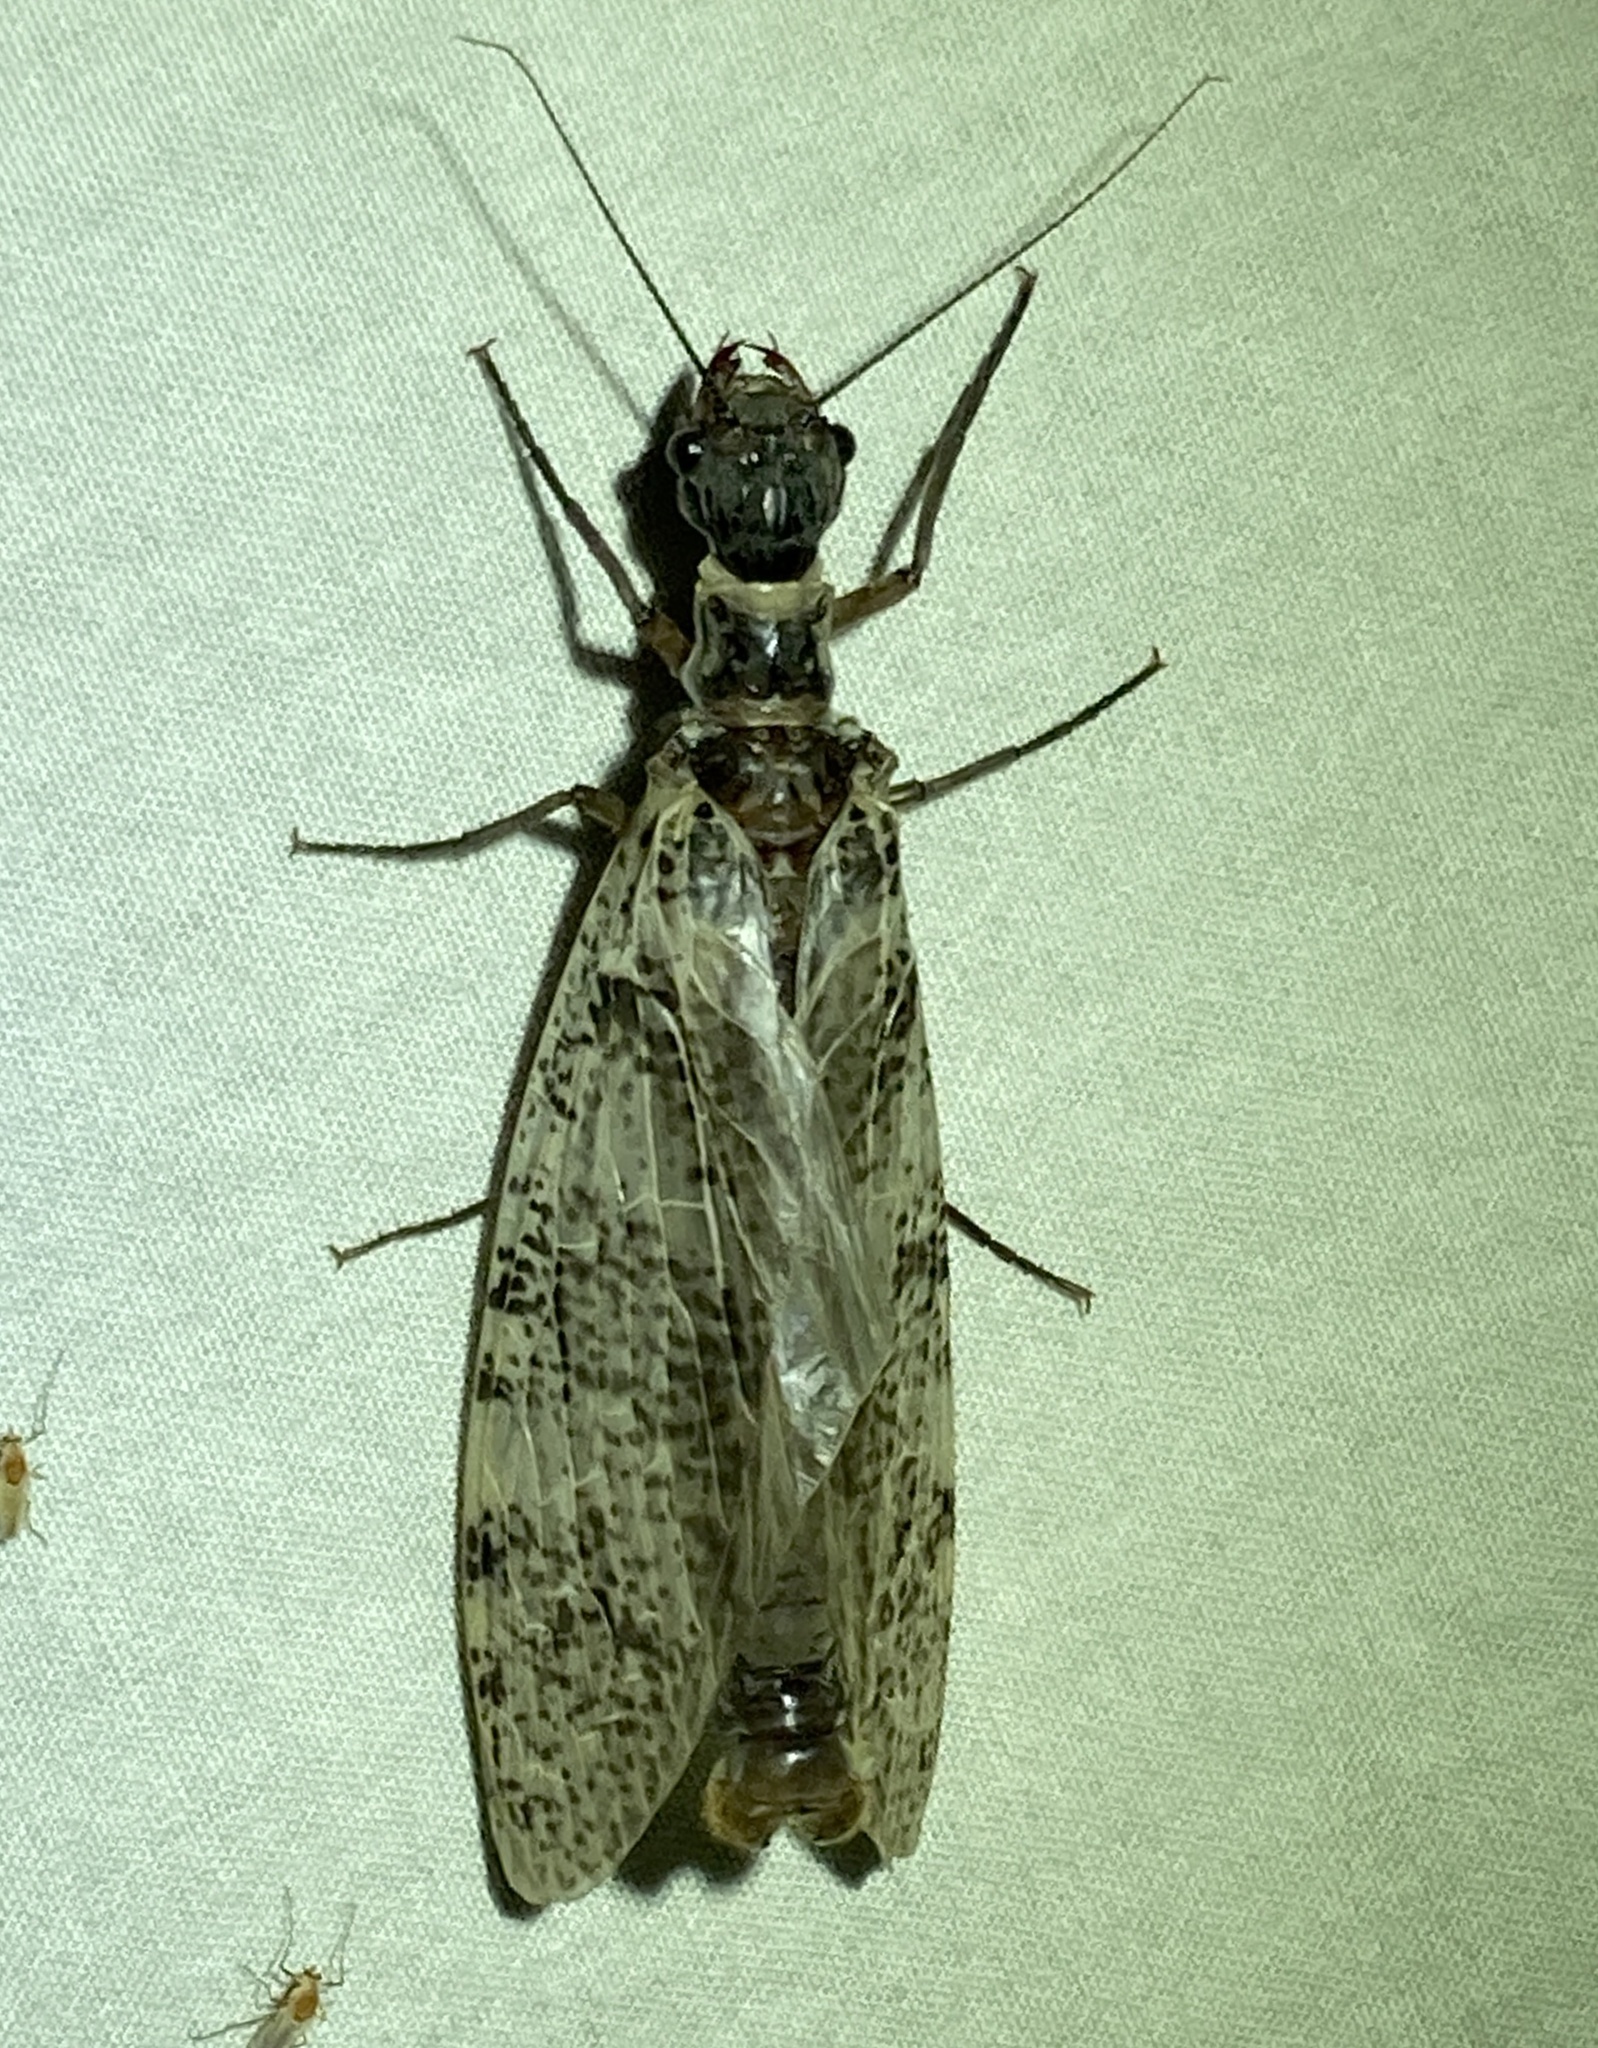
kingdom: Animalia
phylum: Arthropoda
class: Insecta
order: Megaloptera
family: Corydalidae
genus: Orohermes
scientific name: Orohermes crepusculus
